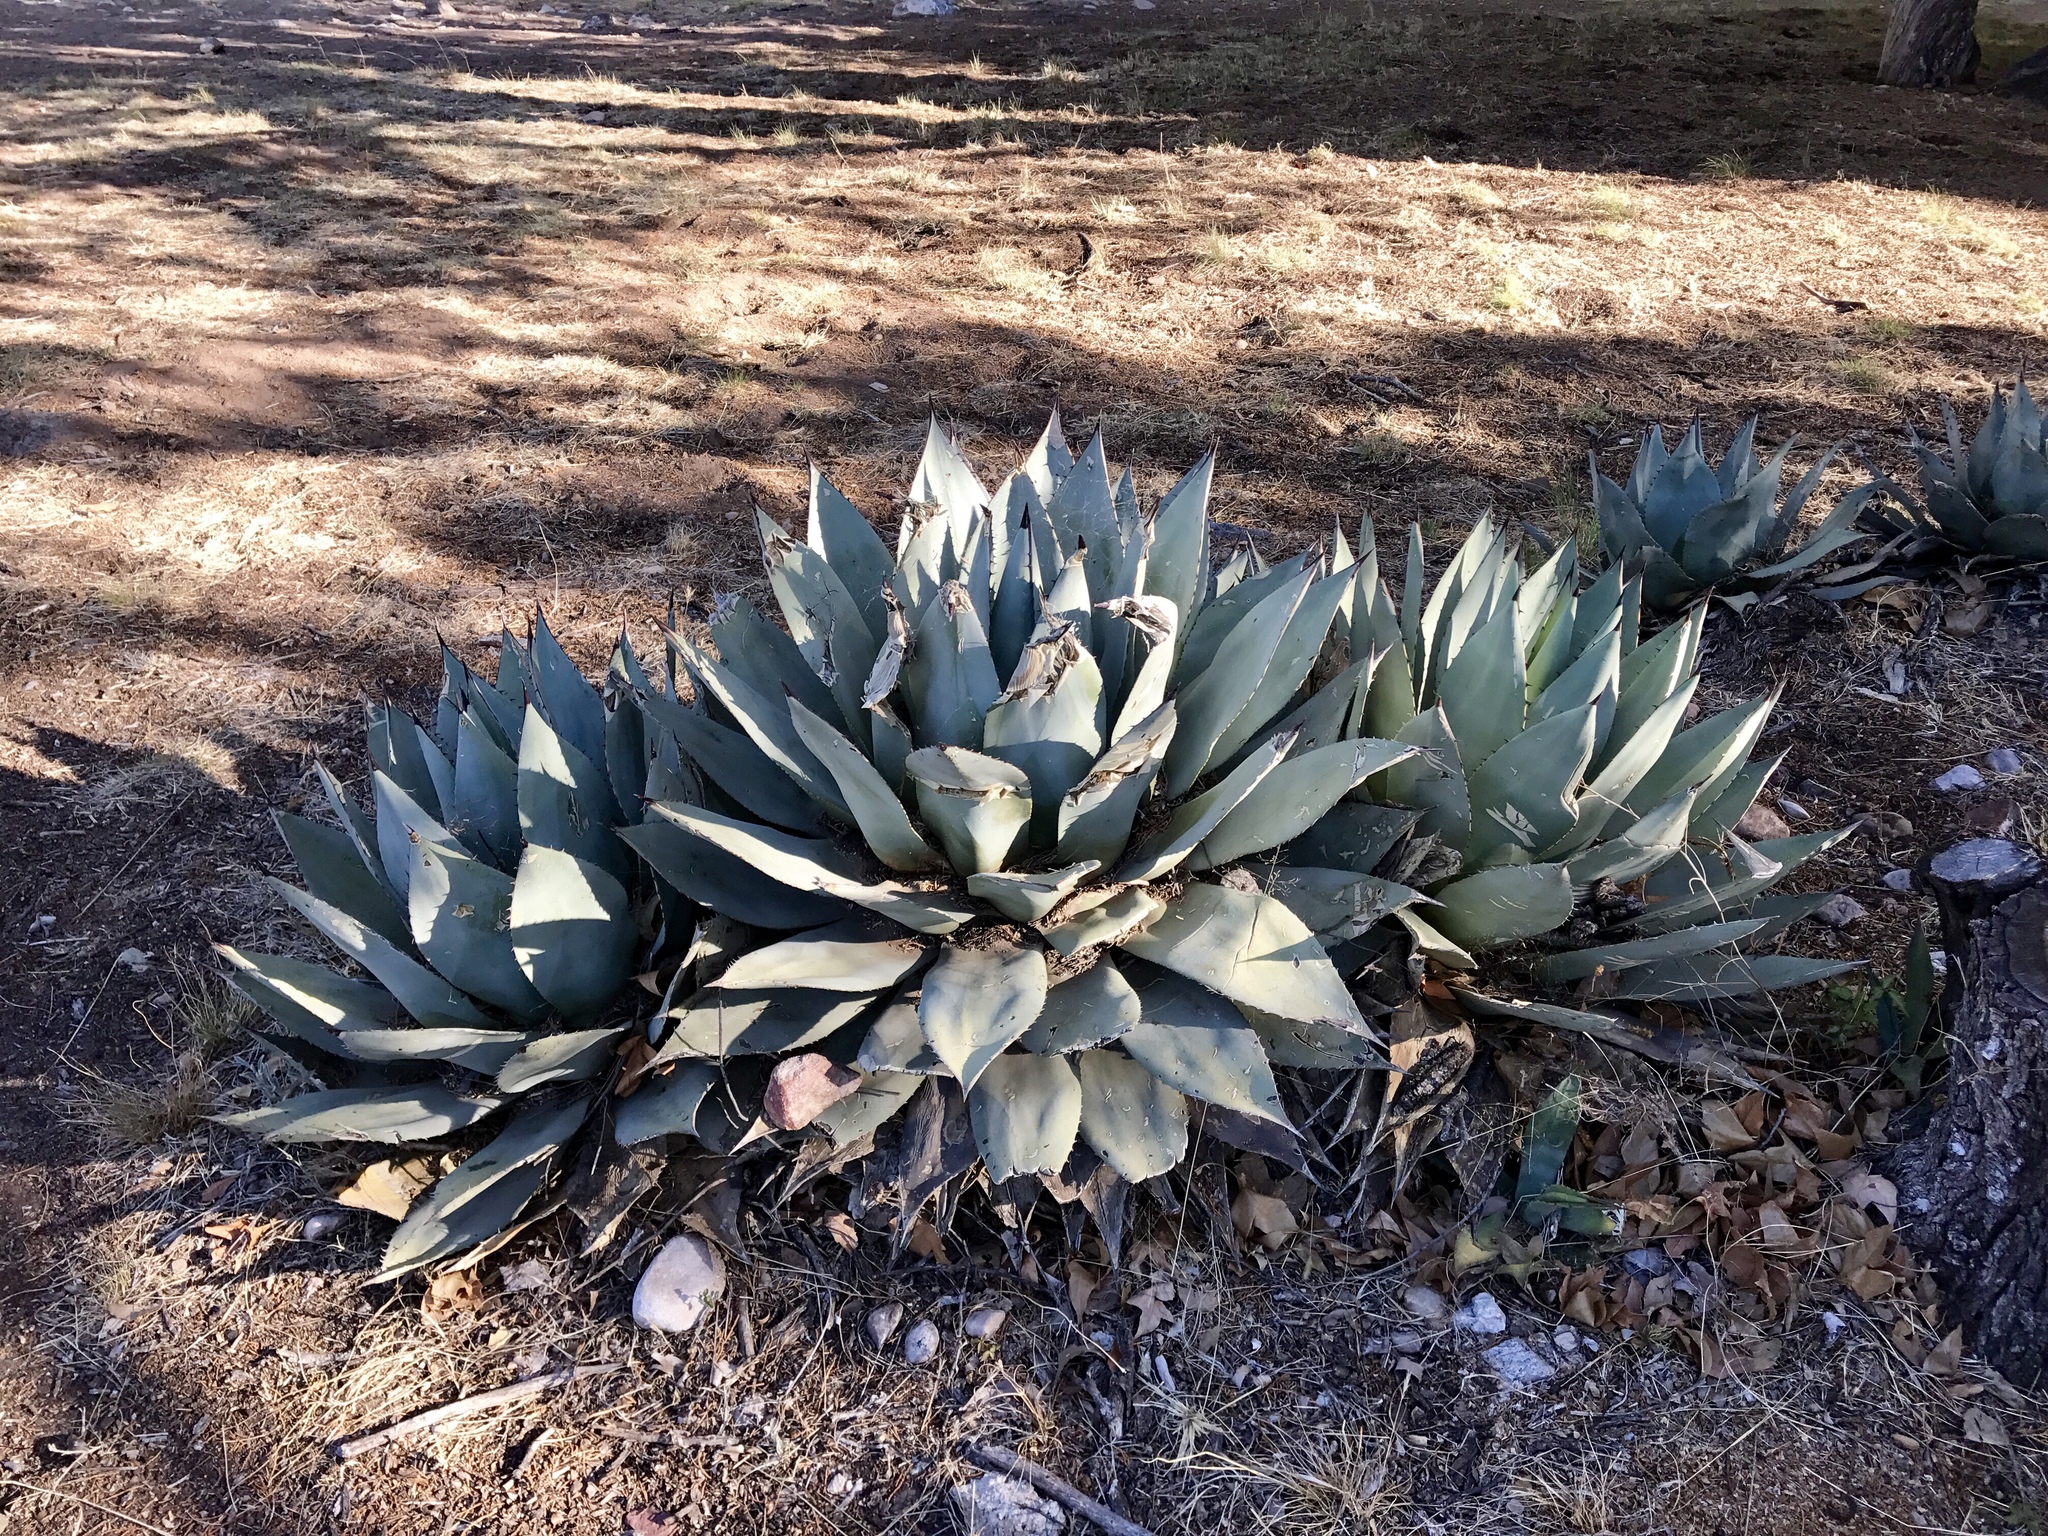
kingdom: Plantae
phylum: Tracheophyta
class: Liliopsida
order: Asparagales
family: Asparagaceae
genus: Agave
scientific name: Agave parryi
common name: Parry's agave
